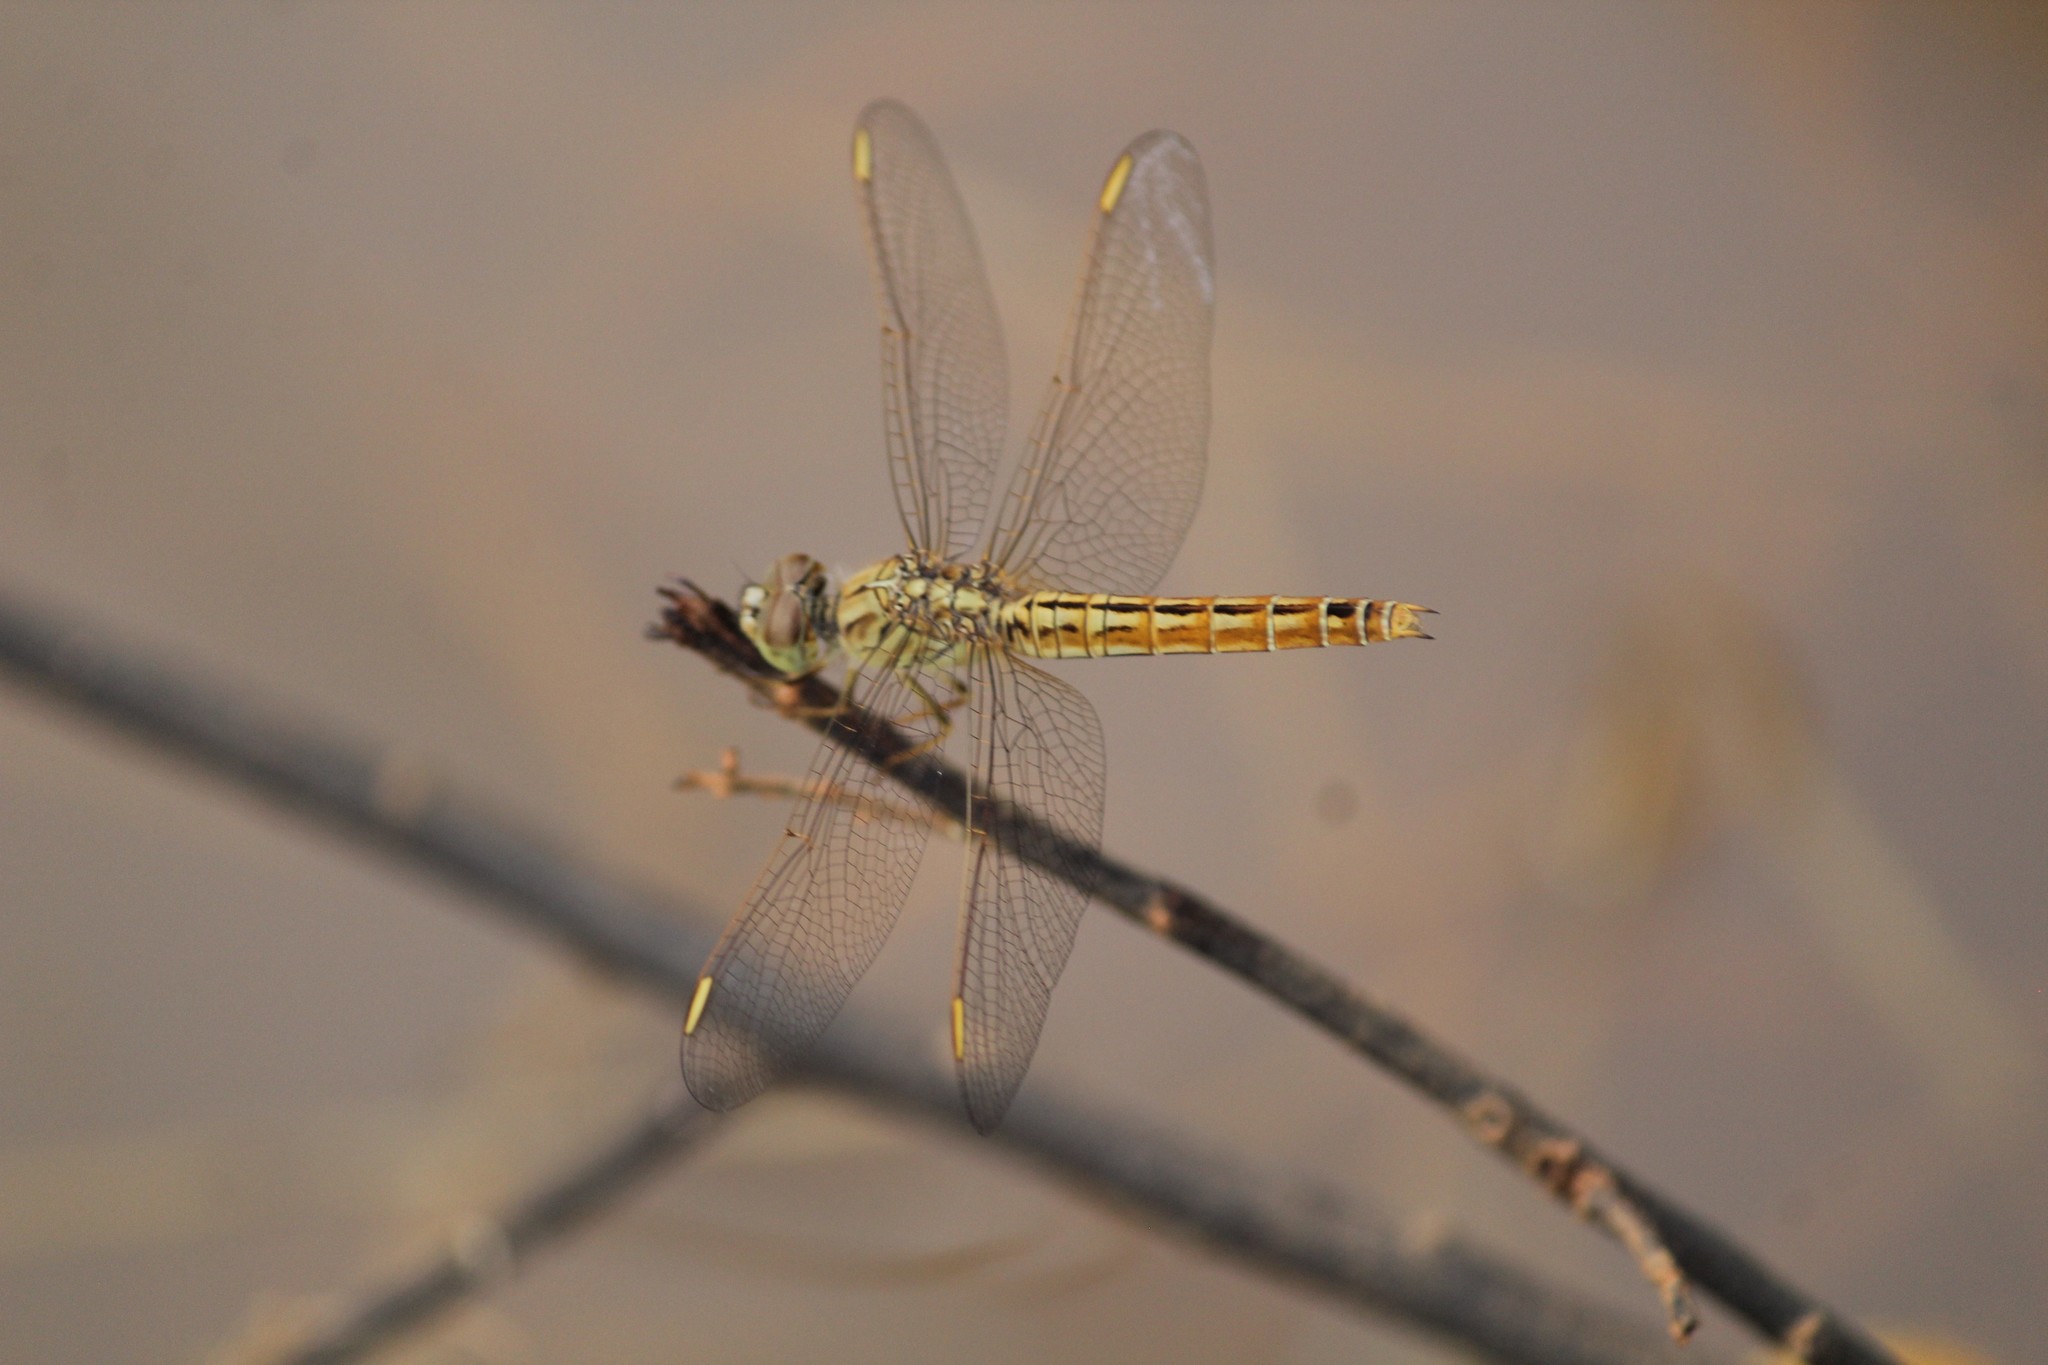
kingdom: Animalia
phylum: Arthropoda
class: Insecta
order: Odonata
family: Libellulidae
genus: Brachythemis
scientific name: Brachythemis contaminata
